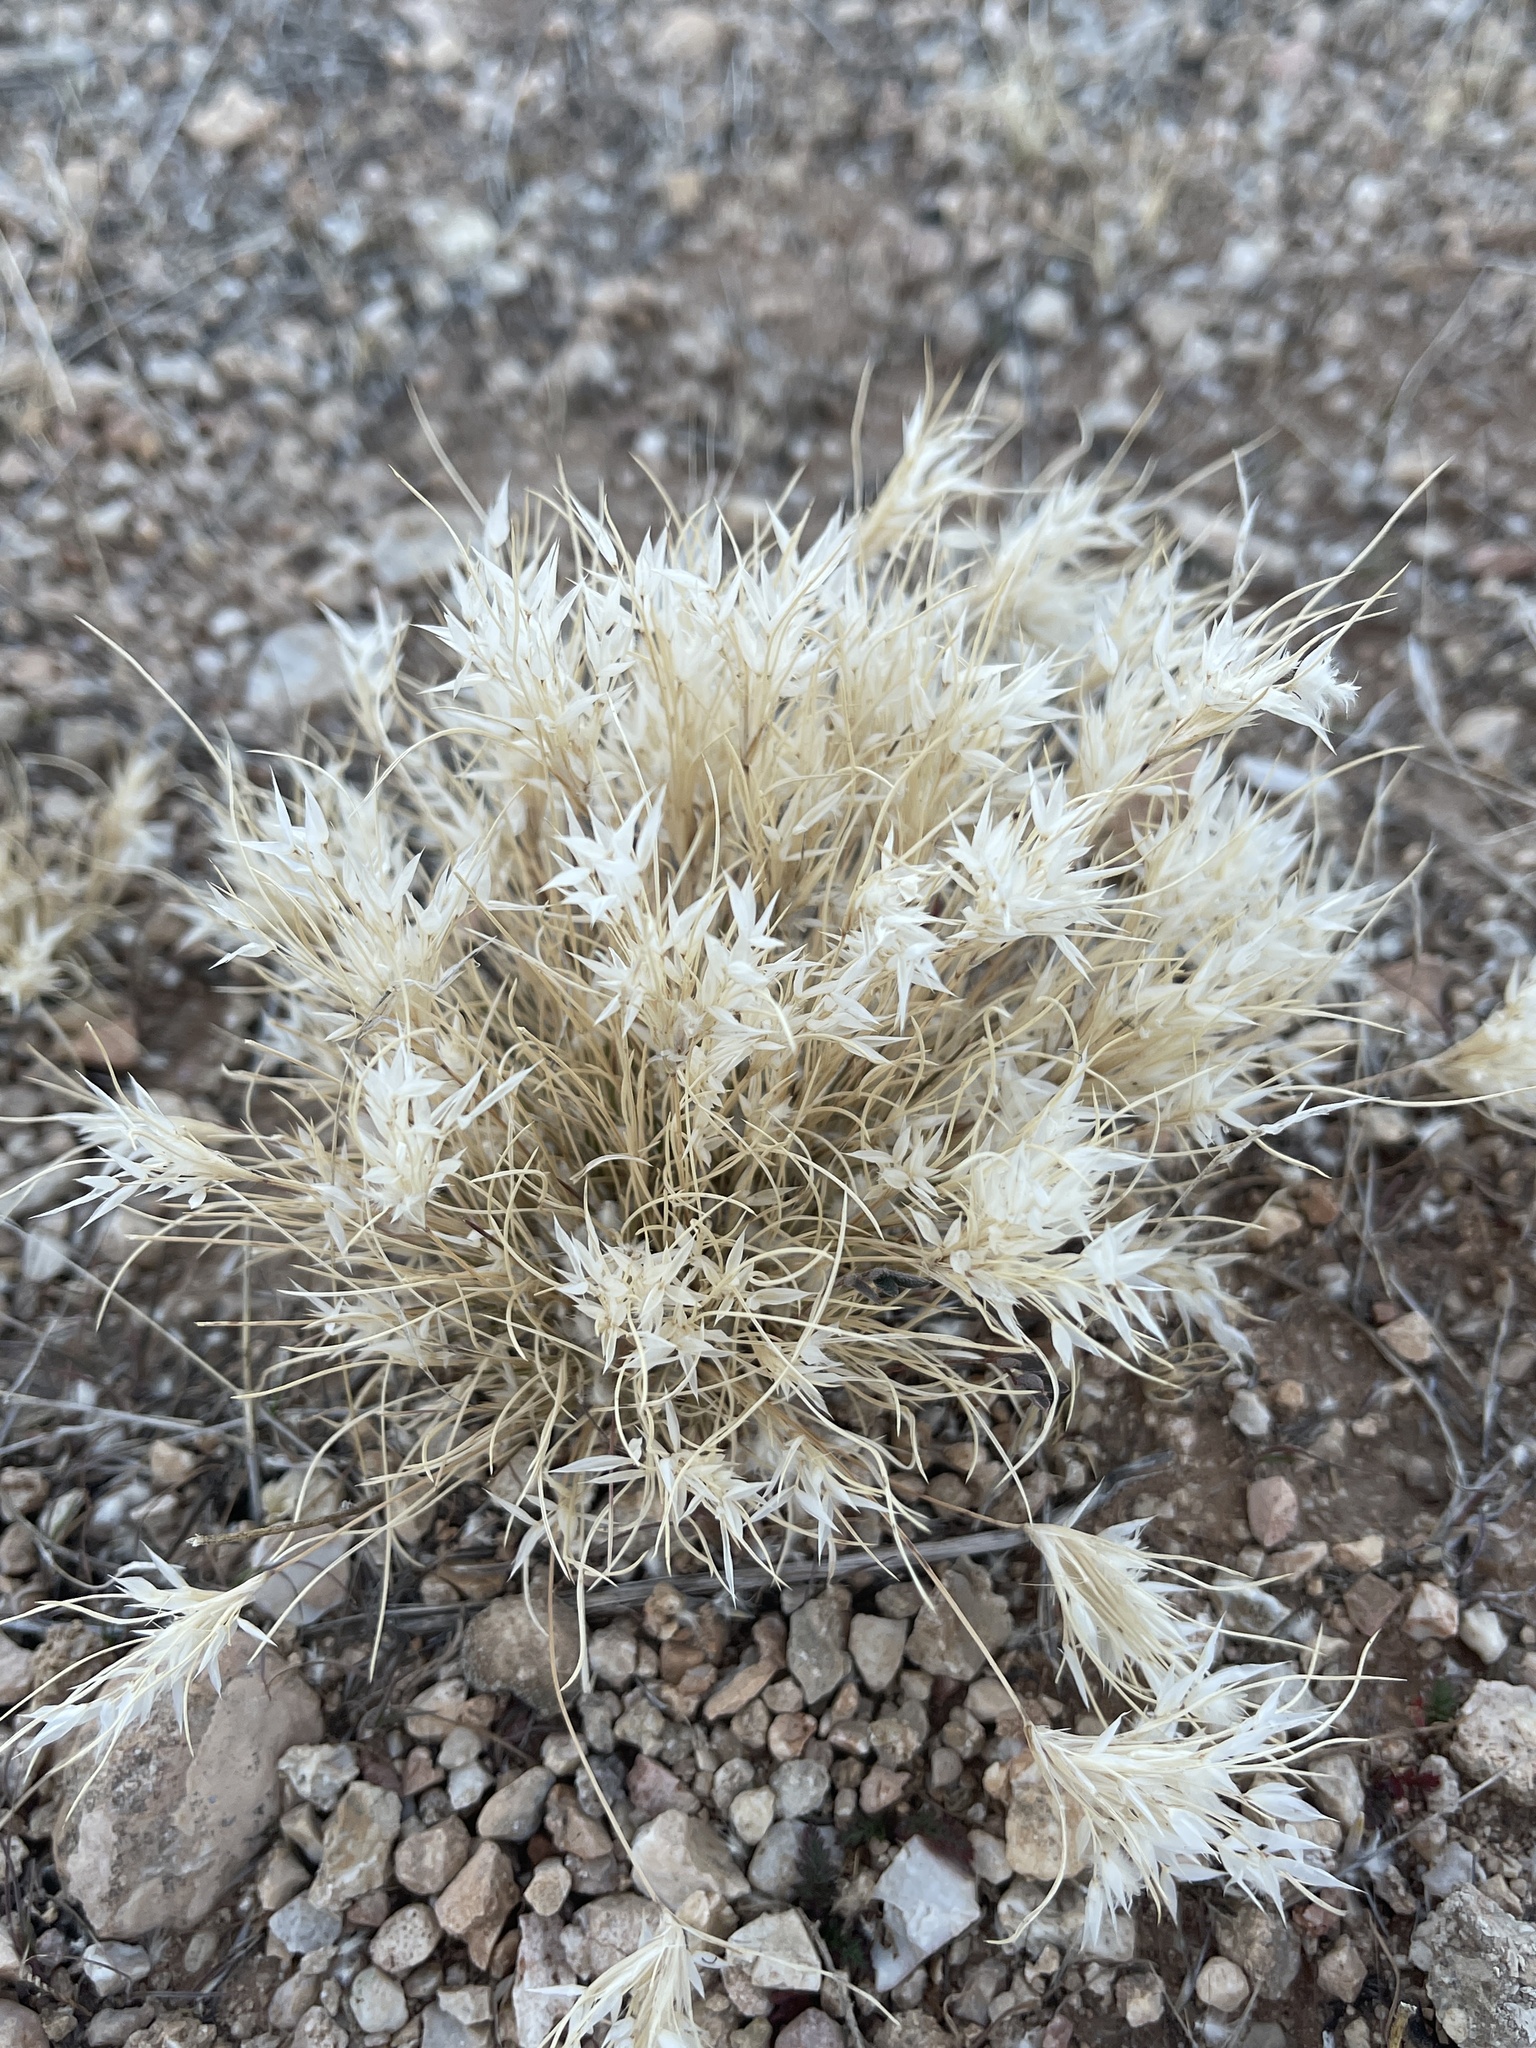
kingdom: Plantae
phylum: Tracheophyta
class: Liliopsida
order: Poales
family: Poaceae
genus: Dasyochloa
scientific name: Dasyochloa pulchella
